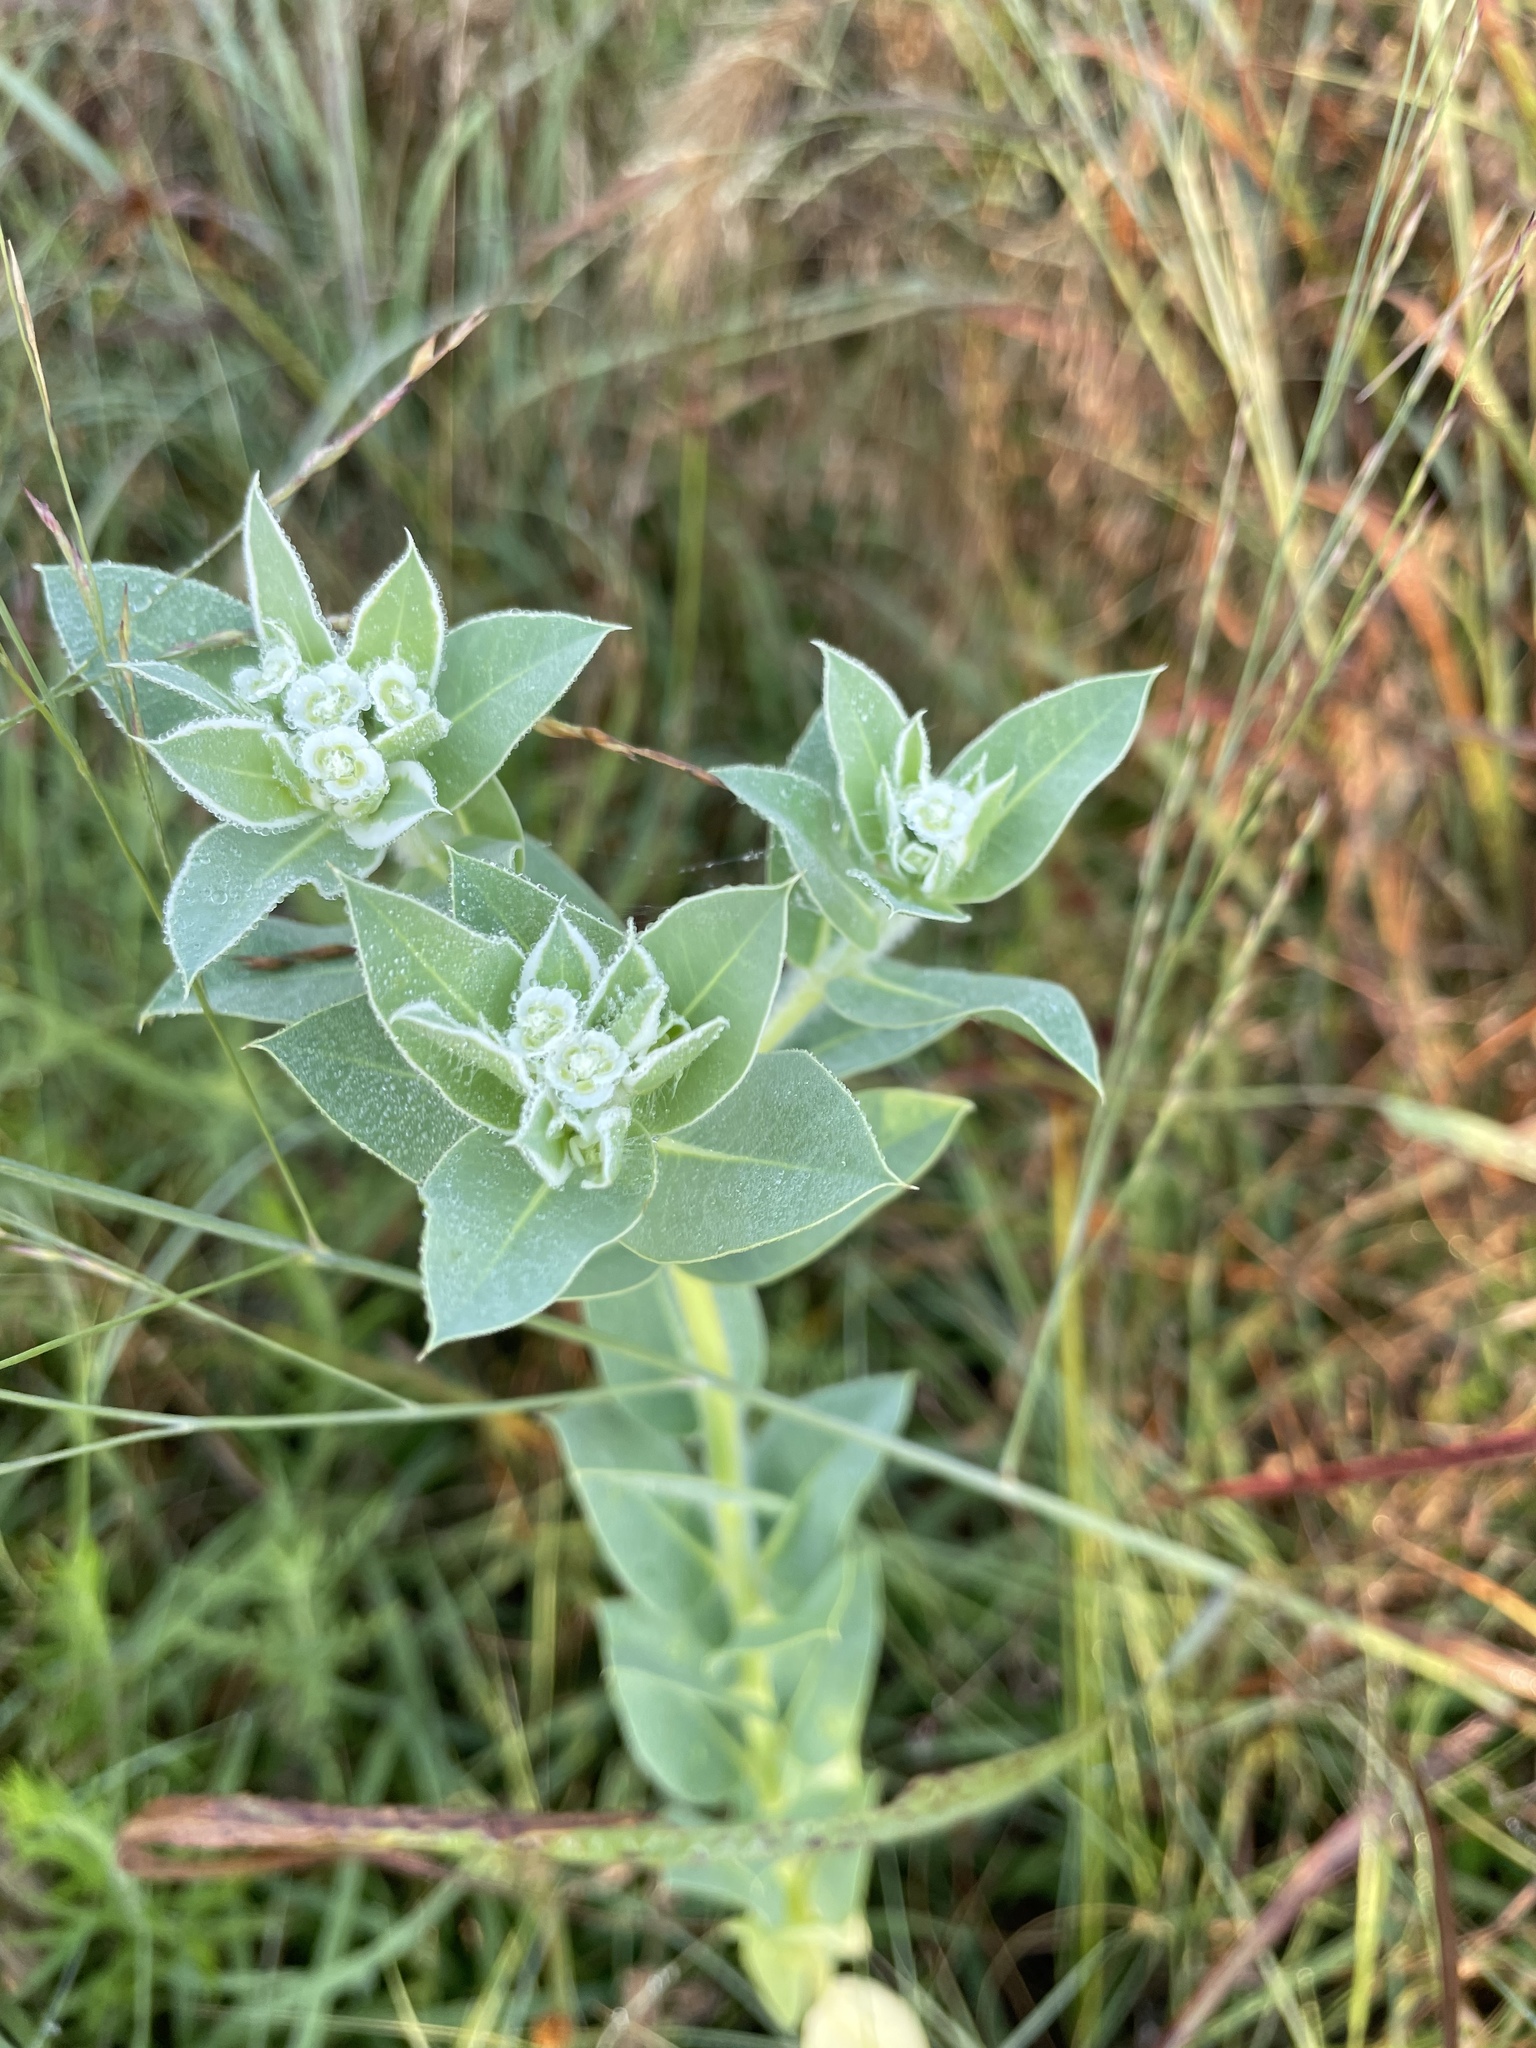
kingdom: Plantae
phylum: Tracheophyta
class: Magnoliopsida
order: Malpighiales
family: Euphorbiaceae
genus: Euphorbia
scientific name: Euphorbia marginata
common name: Ghostweed
